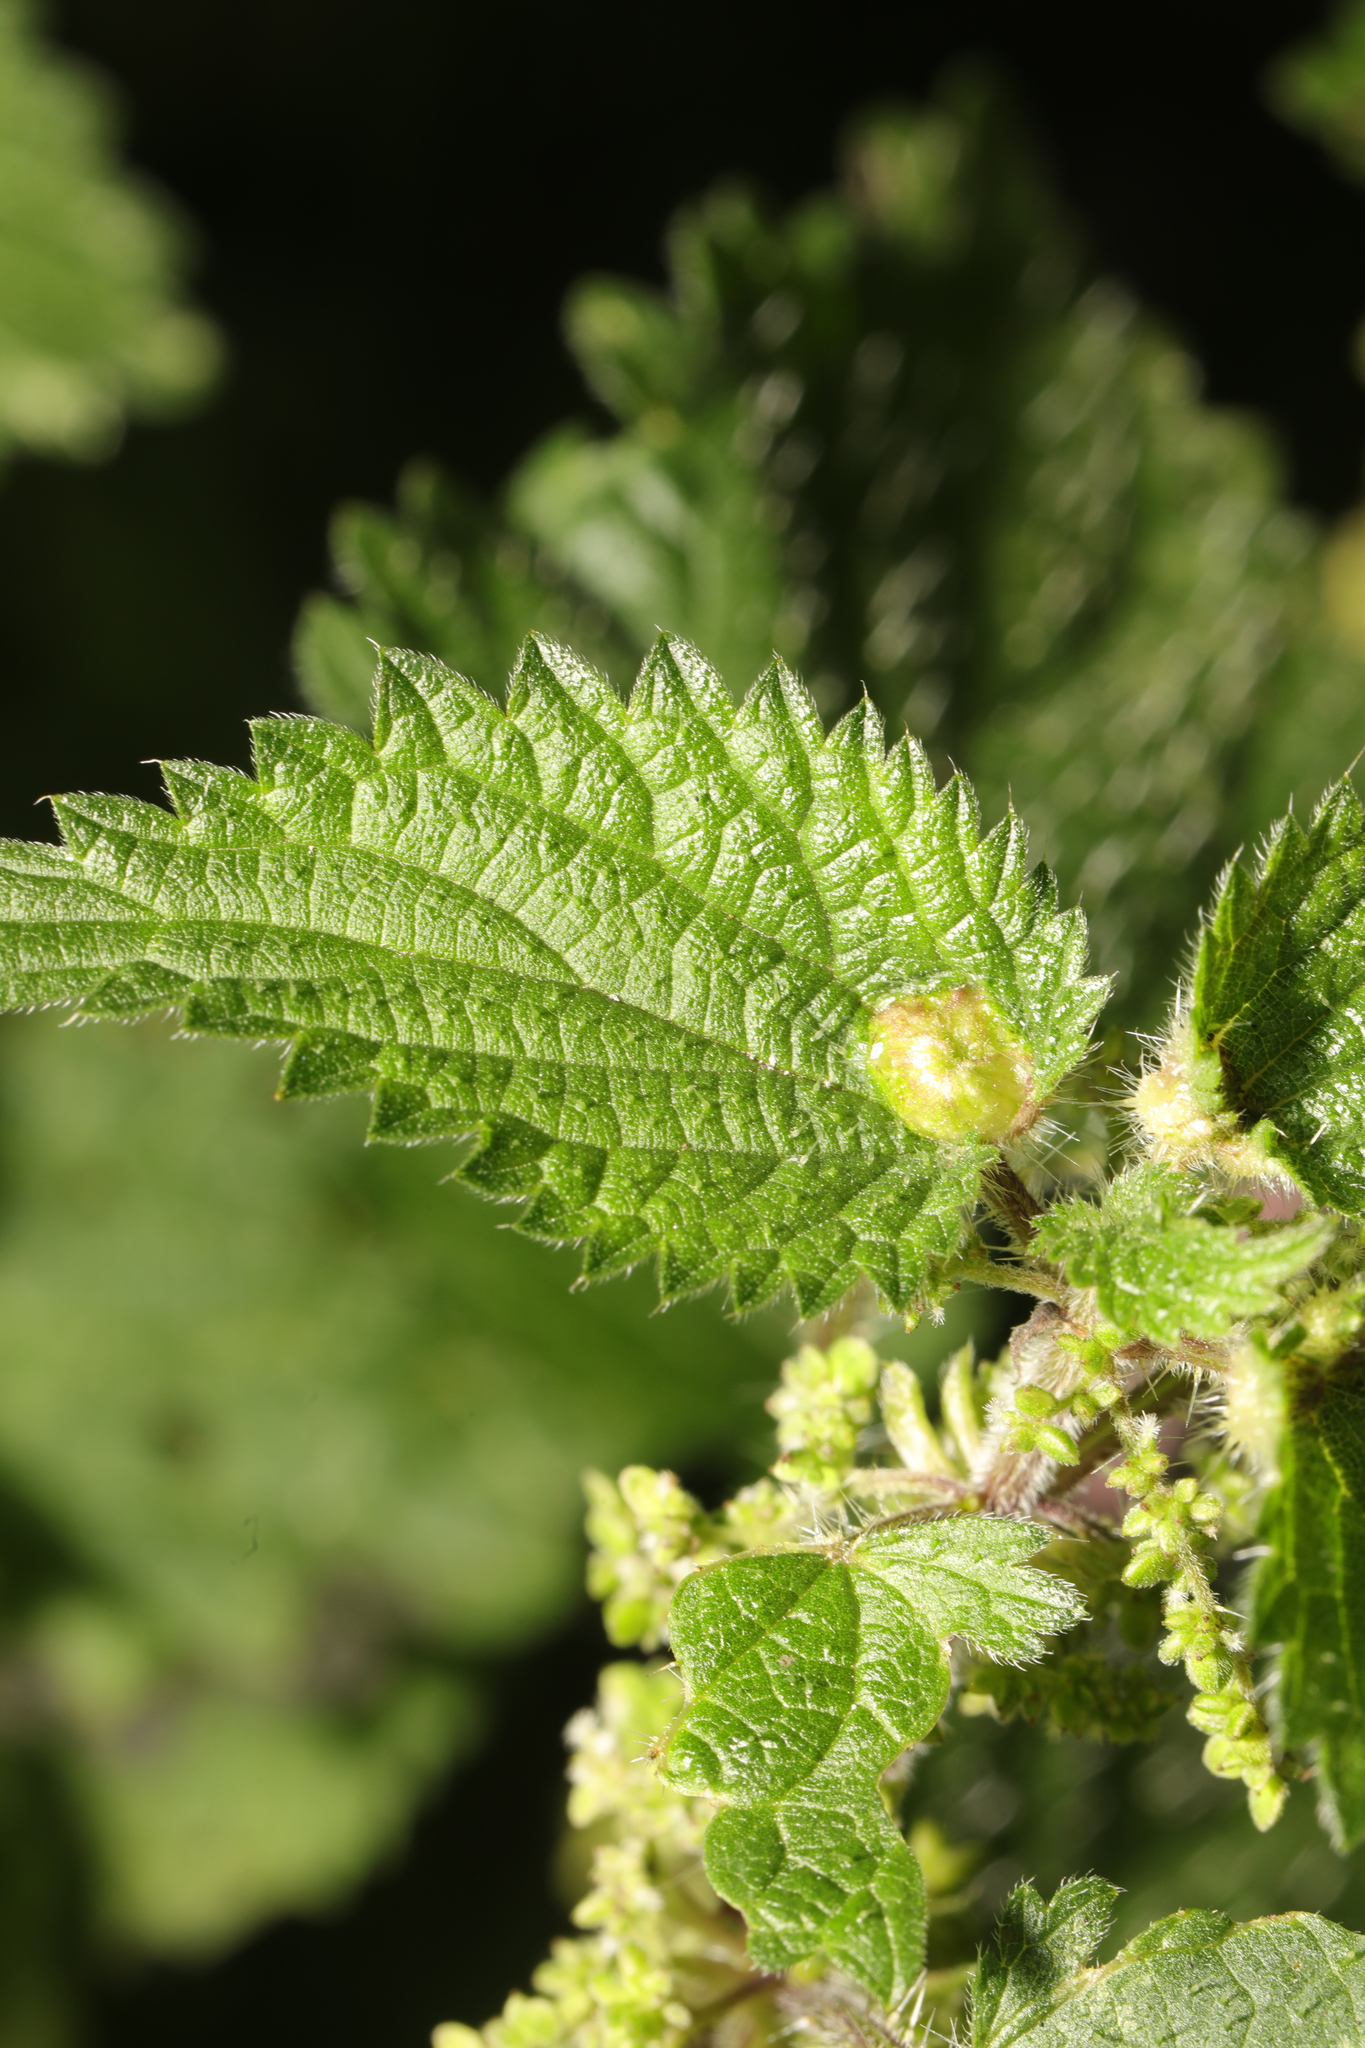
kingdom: Animalia
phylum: Arthropoda
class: Insecta
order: Diptera
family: Cecidomyiidae
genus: Dasineura
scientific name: Dasineura urticae
